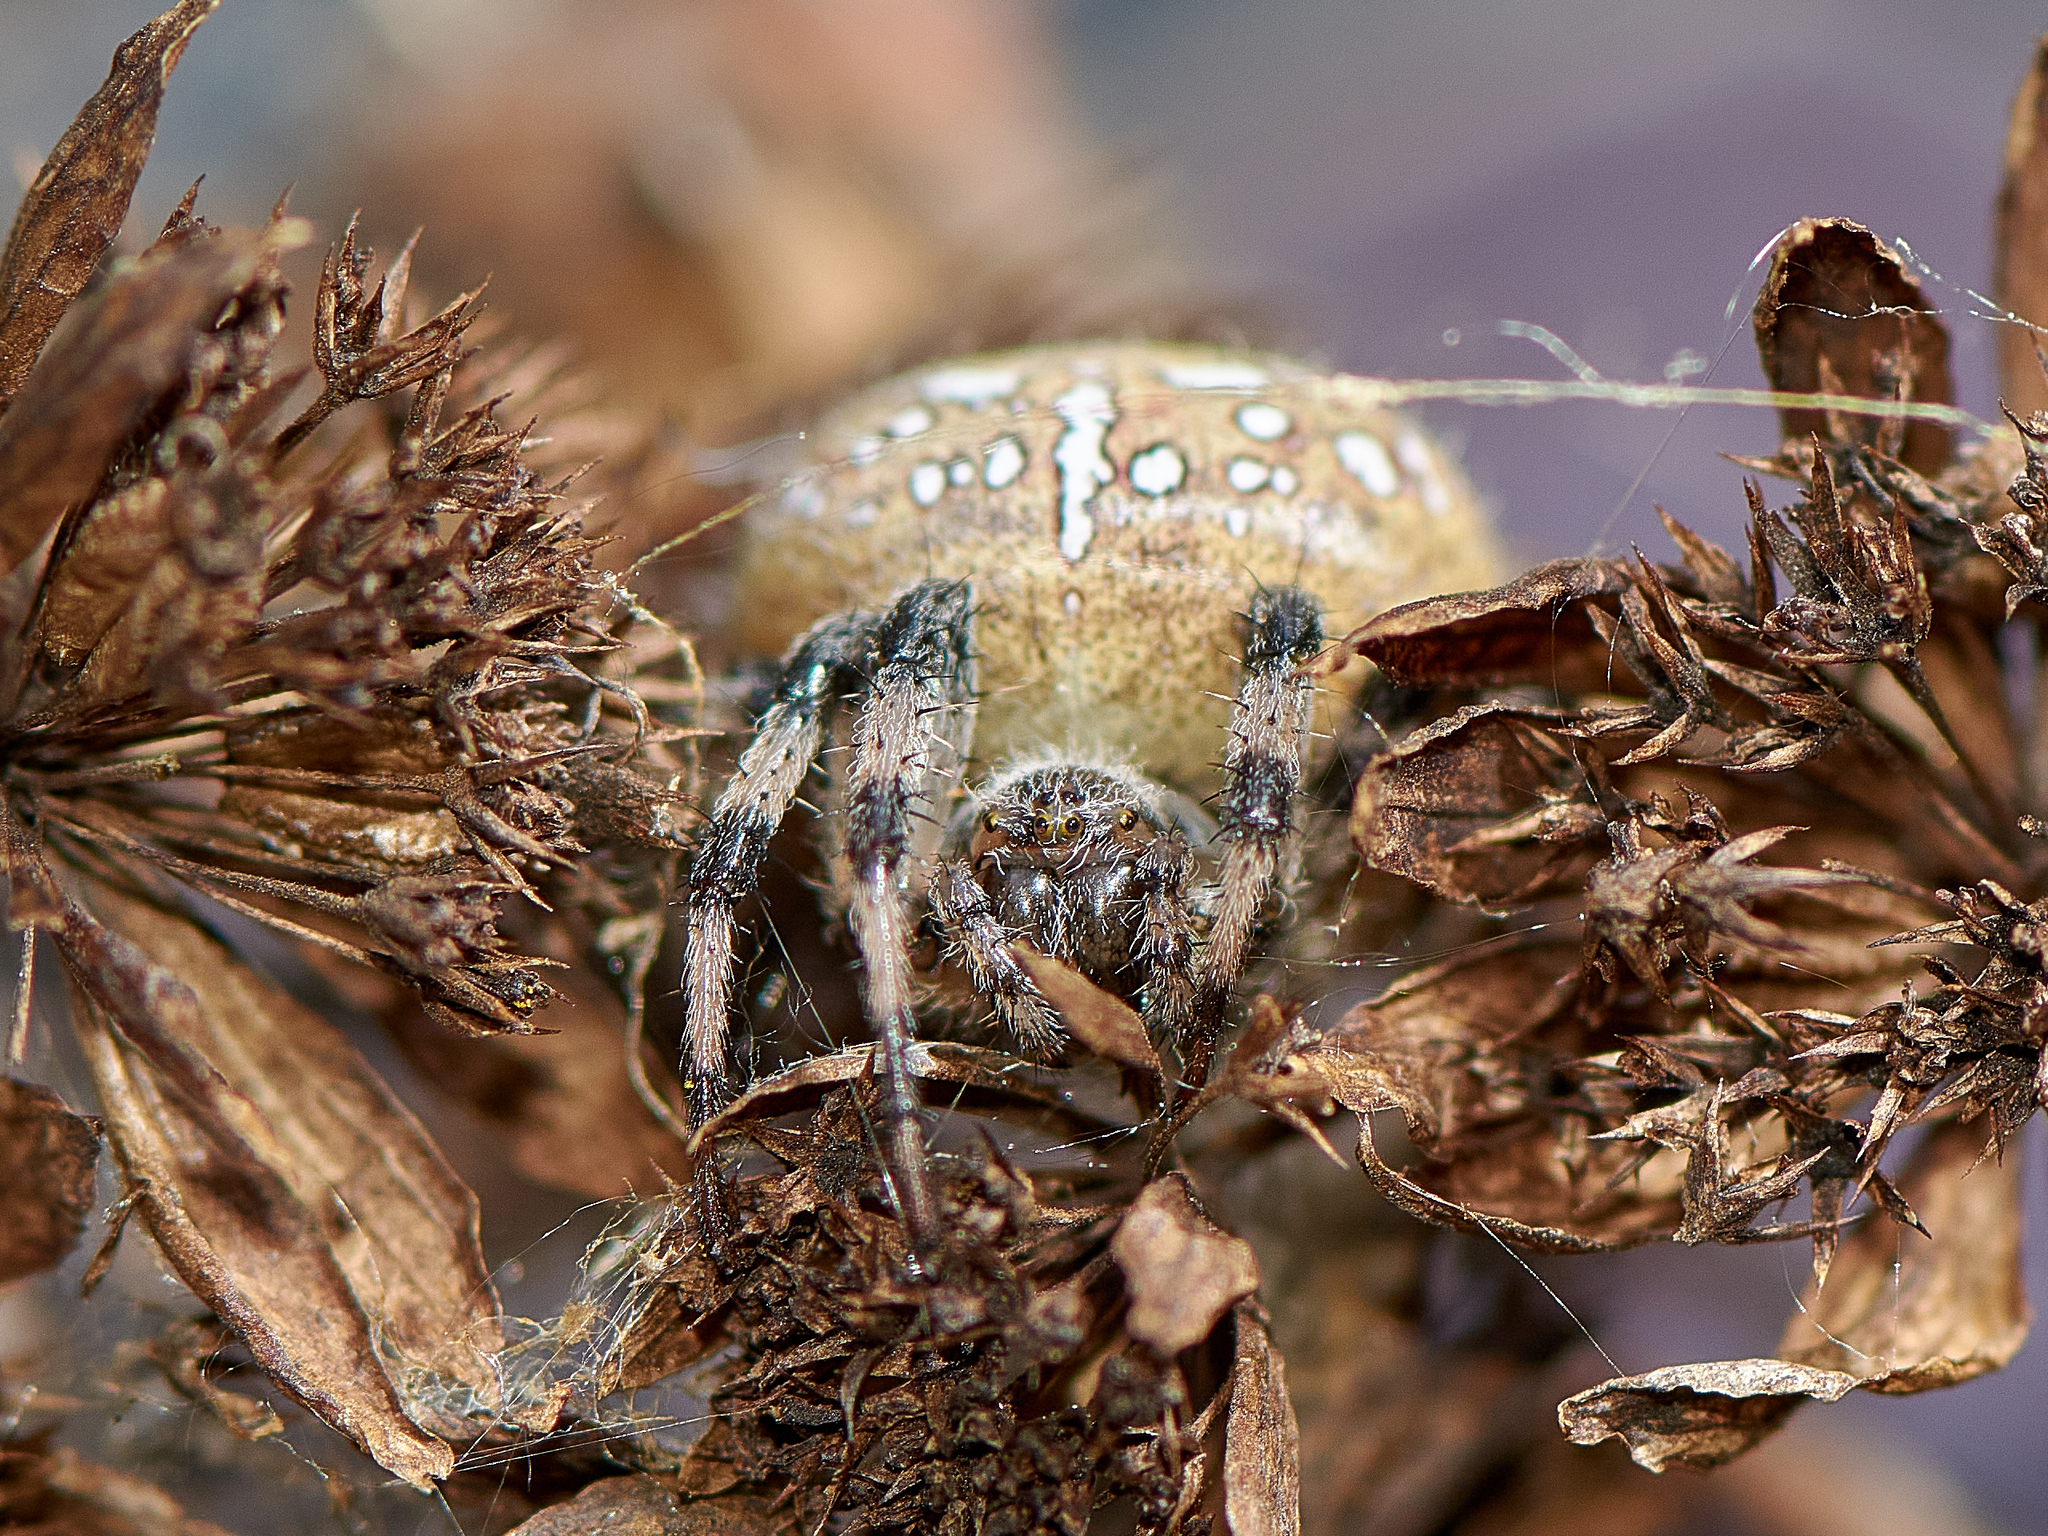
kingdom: Animalia
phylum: Arthropoda
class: Arachnida
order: Araneae
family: Araneidae
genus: Araneus
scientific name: Araneus quadratus
